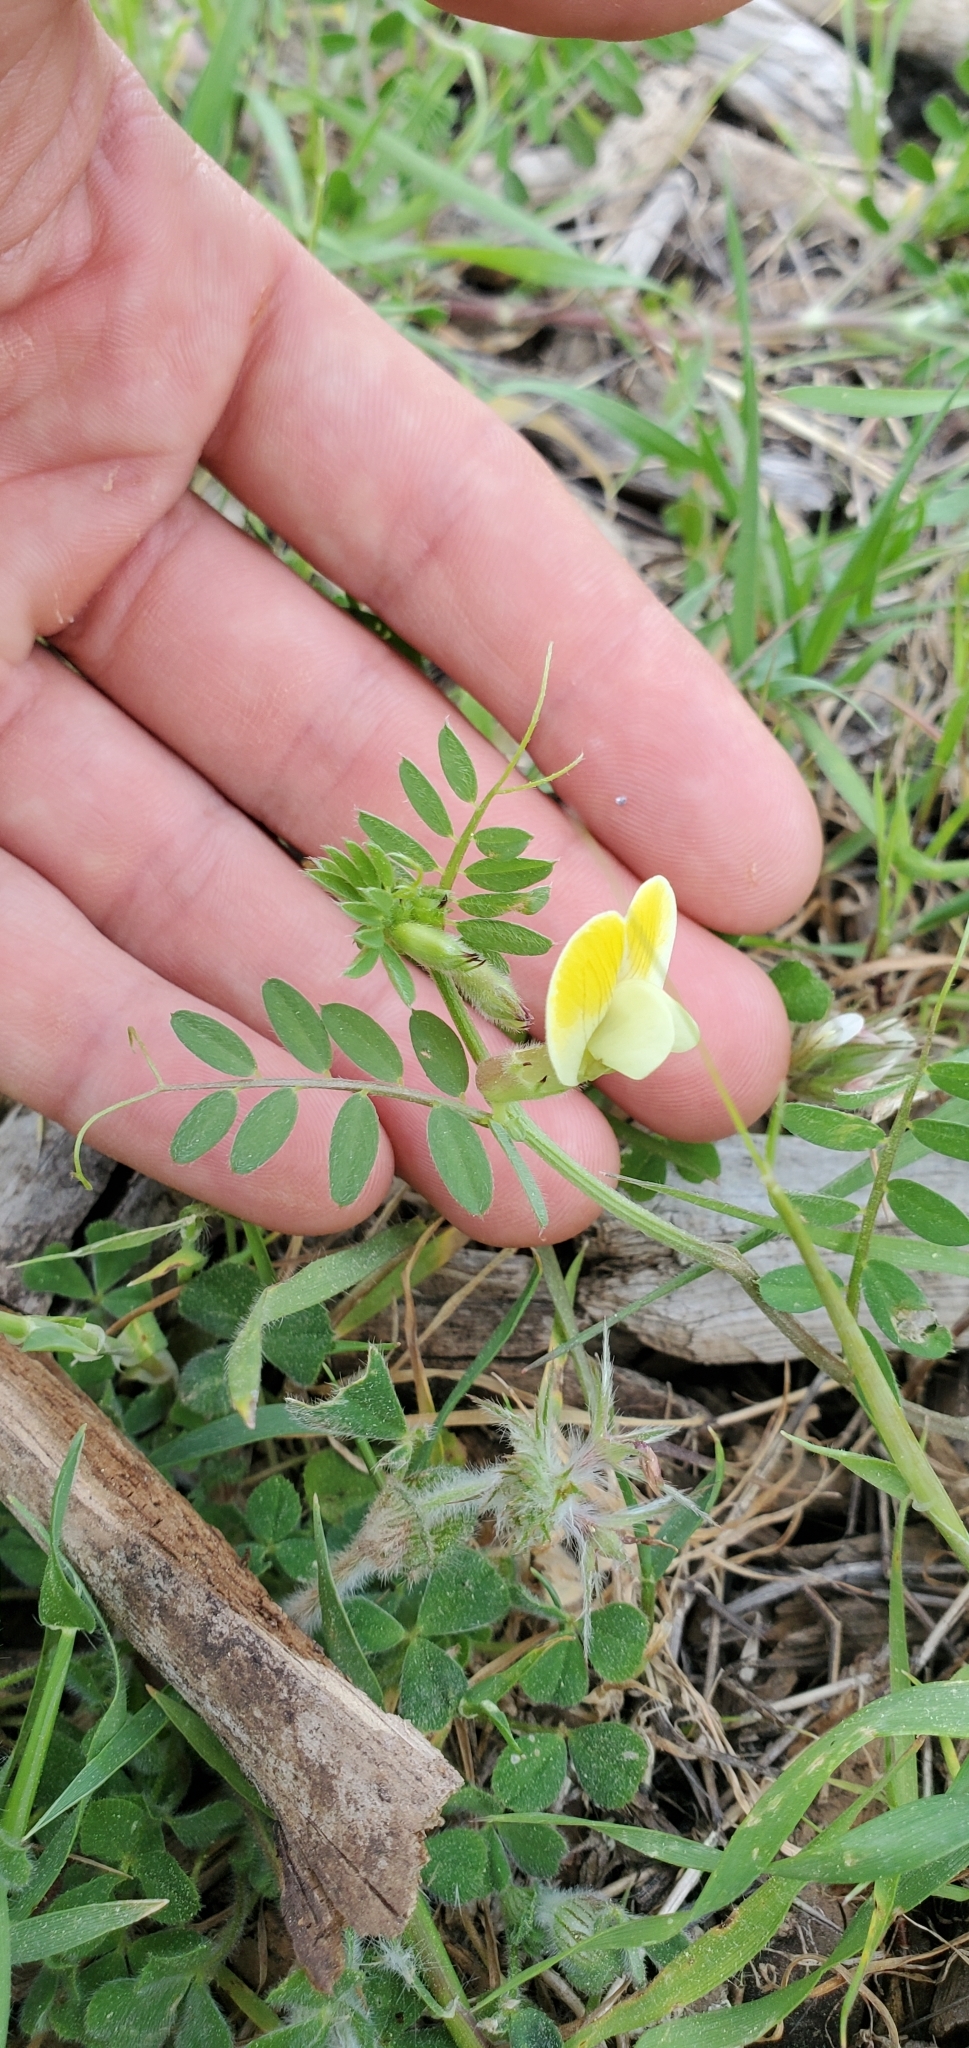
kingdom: Plantae
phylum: Tracheophyta
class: Magnoliopsida
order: Fabales
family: Fabaceae
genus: Vicia
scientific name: Vicia hybrida
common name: Hairy yellow vetch
